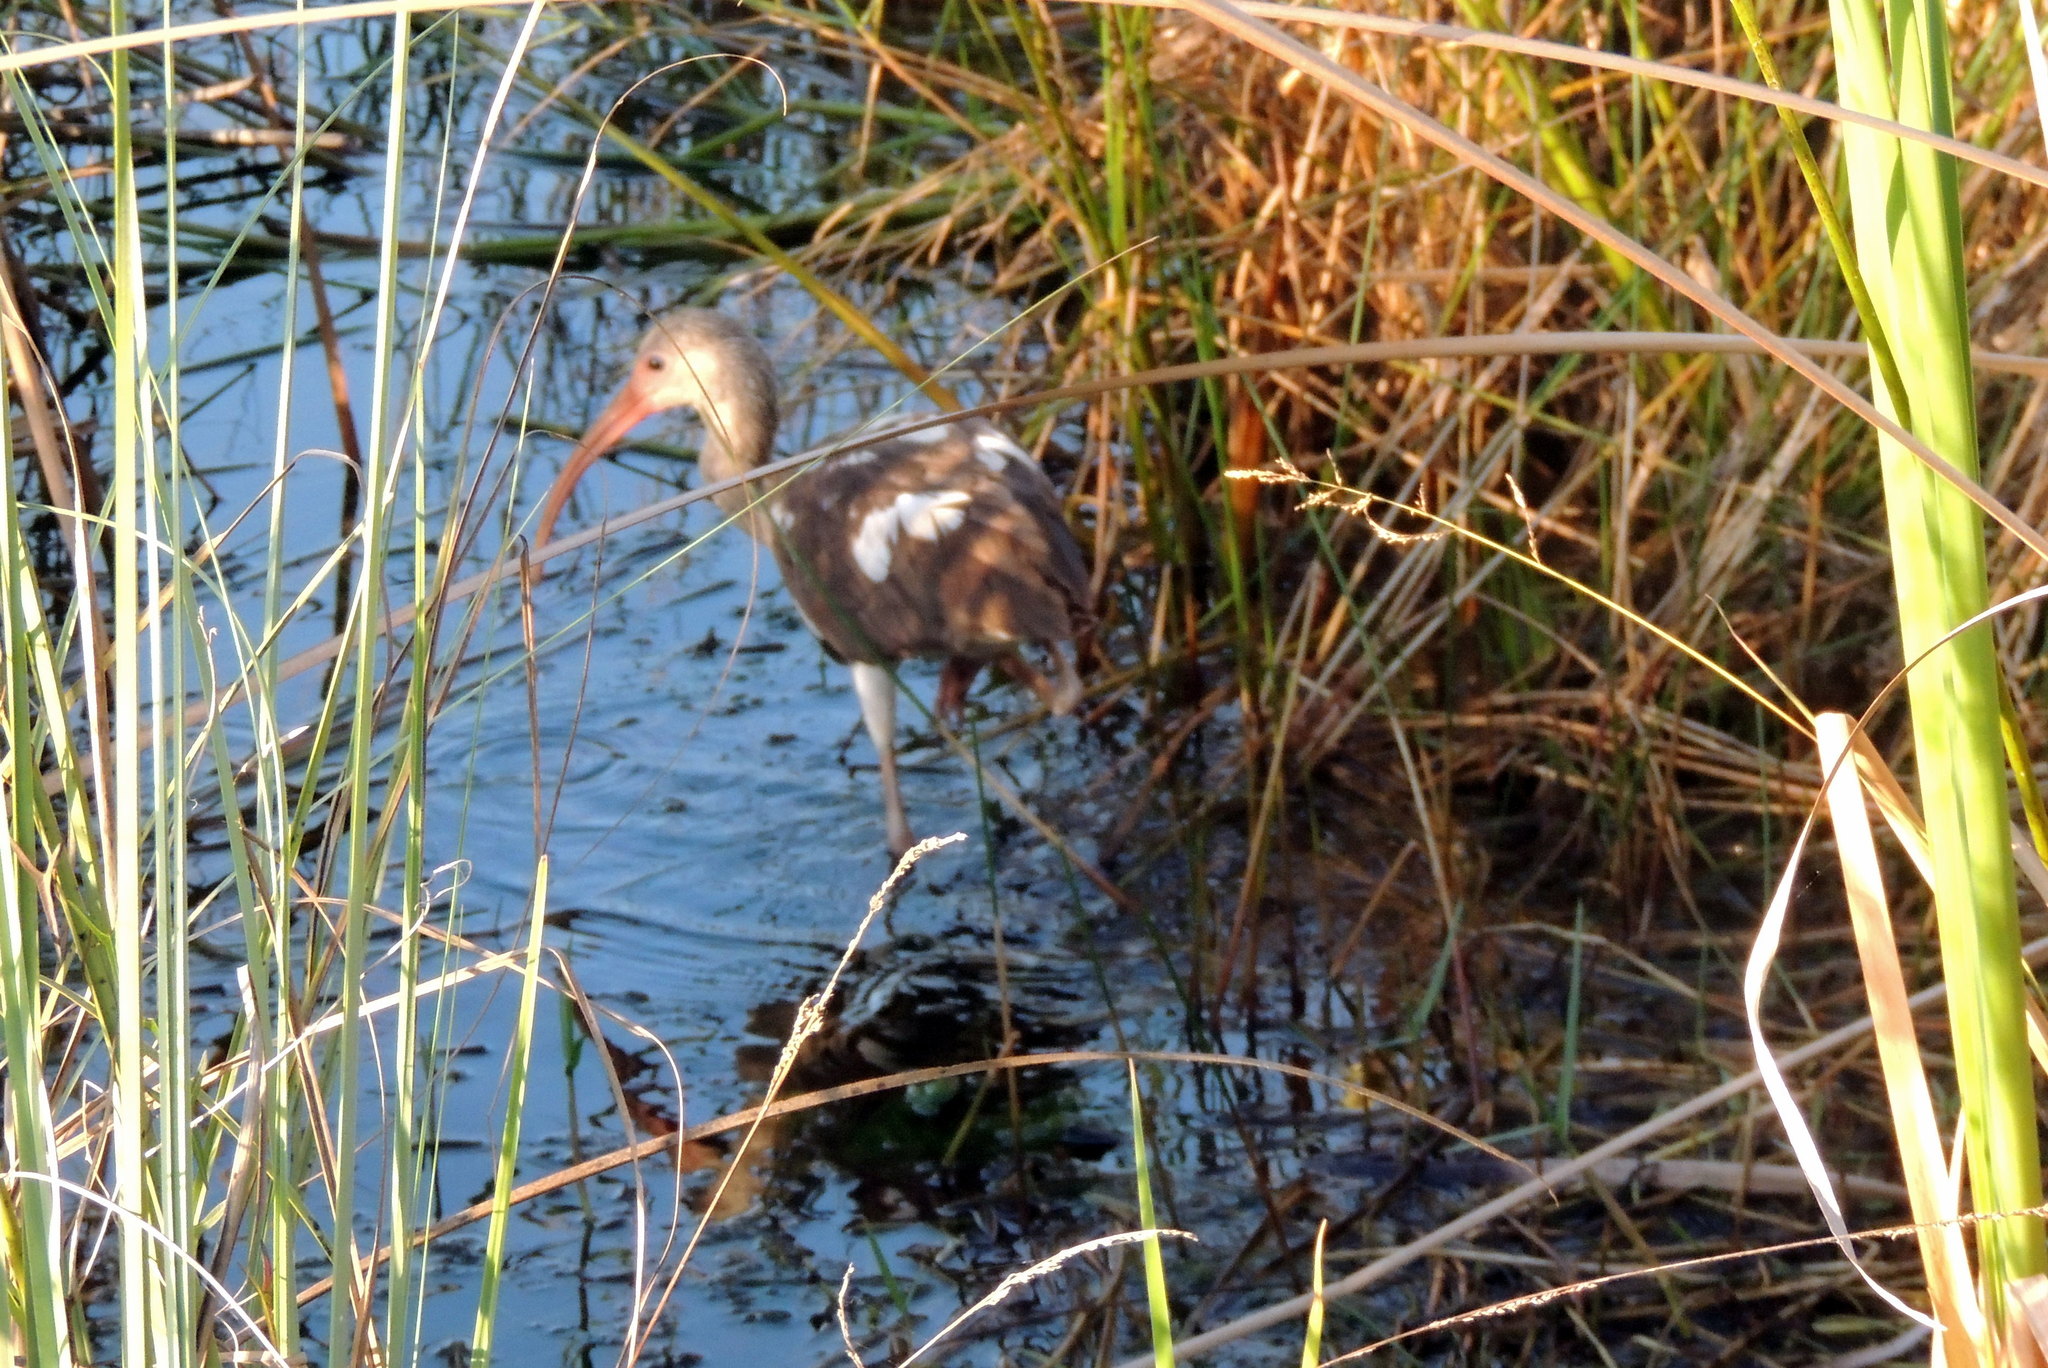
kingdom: Animalia
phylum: Chordata
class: Aves
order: Pelecaniformes
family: Threskiornithidae
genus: Eudocimus
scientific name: Eudocimus albus
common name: White ibis
